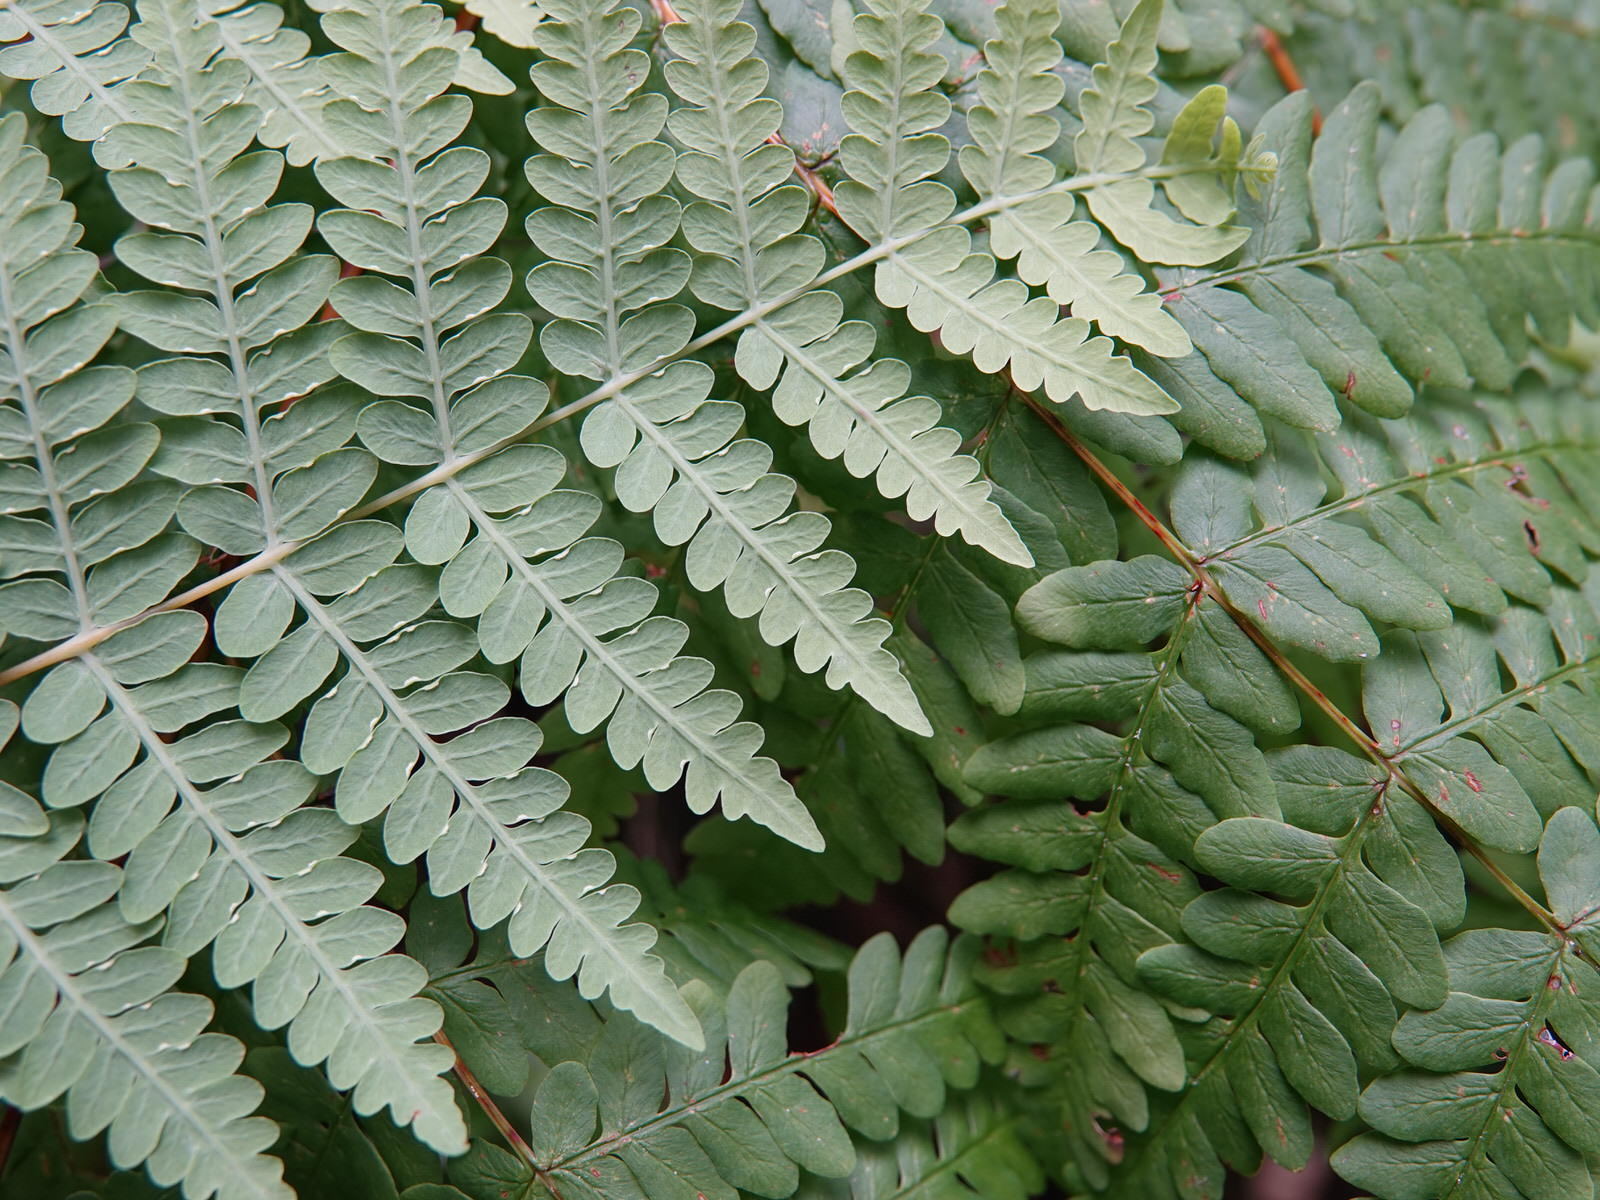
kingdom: Plantae
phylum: Tracheophyta
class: Polypodiopsida
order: Polypodiales
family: Dennstaedtiaceae
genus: Histiopteris
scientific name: Histiopteris incisa
